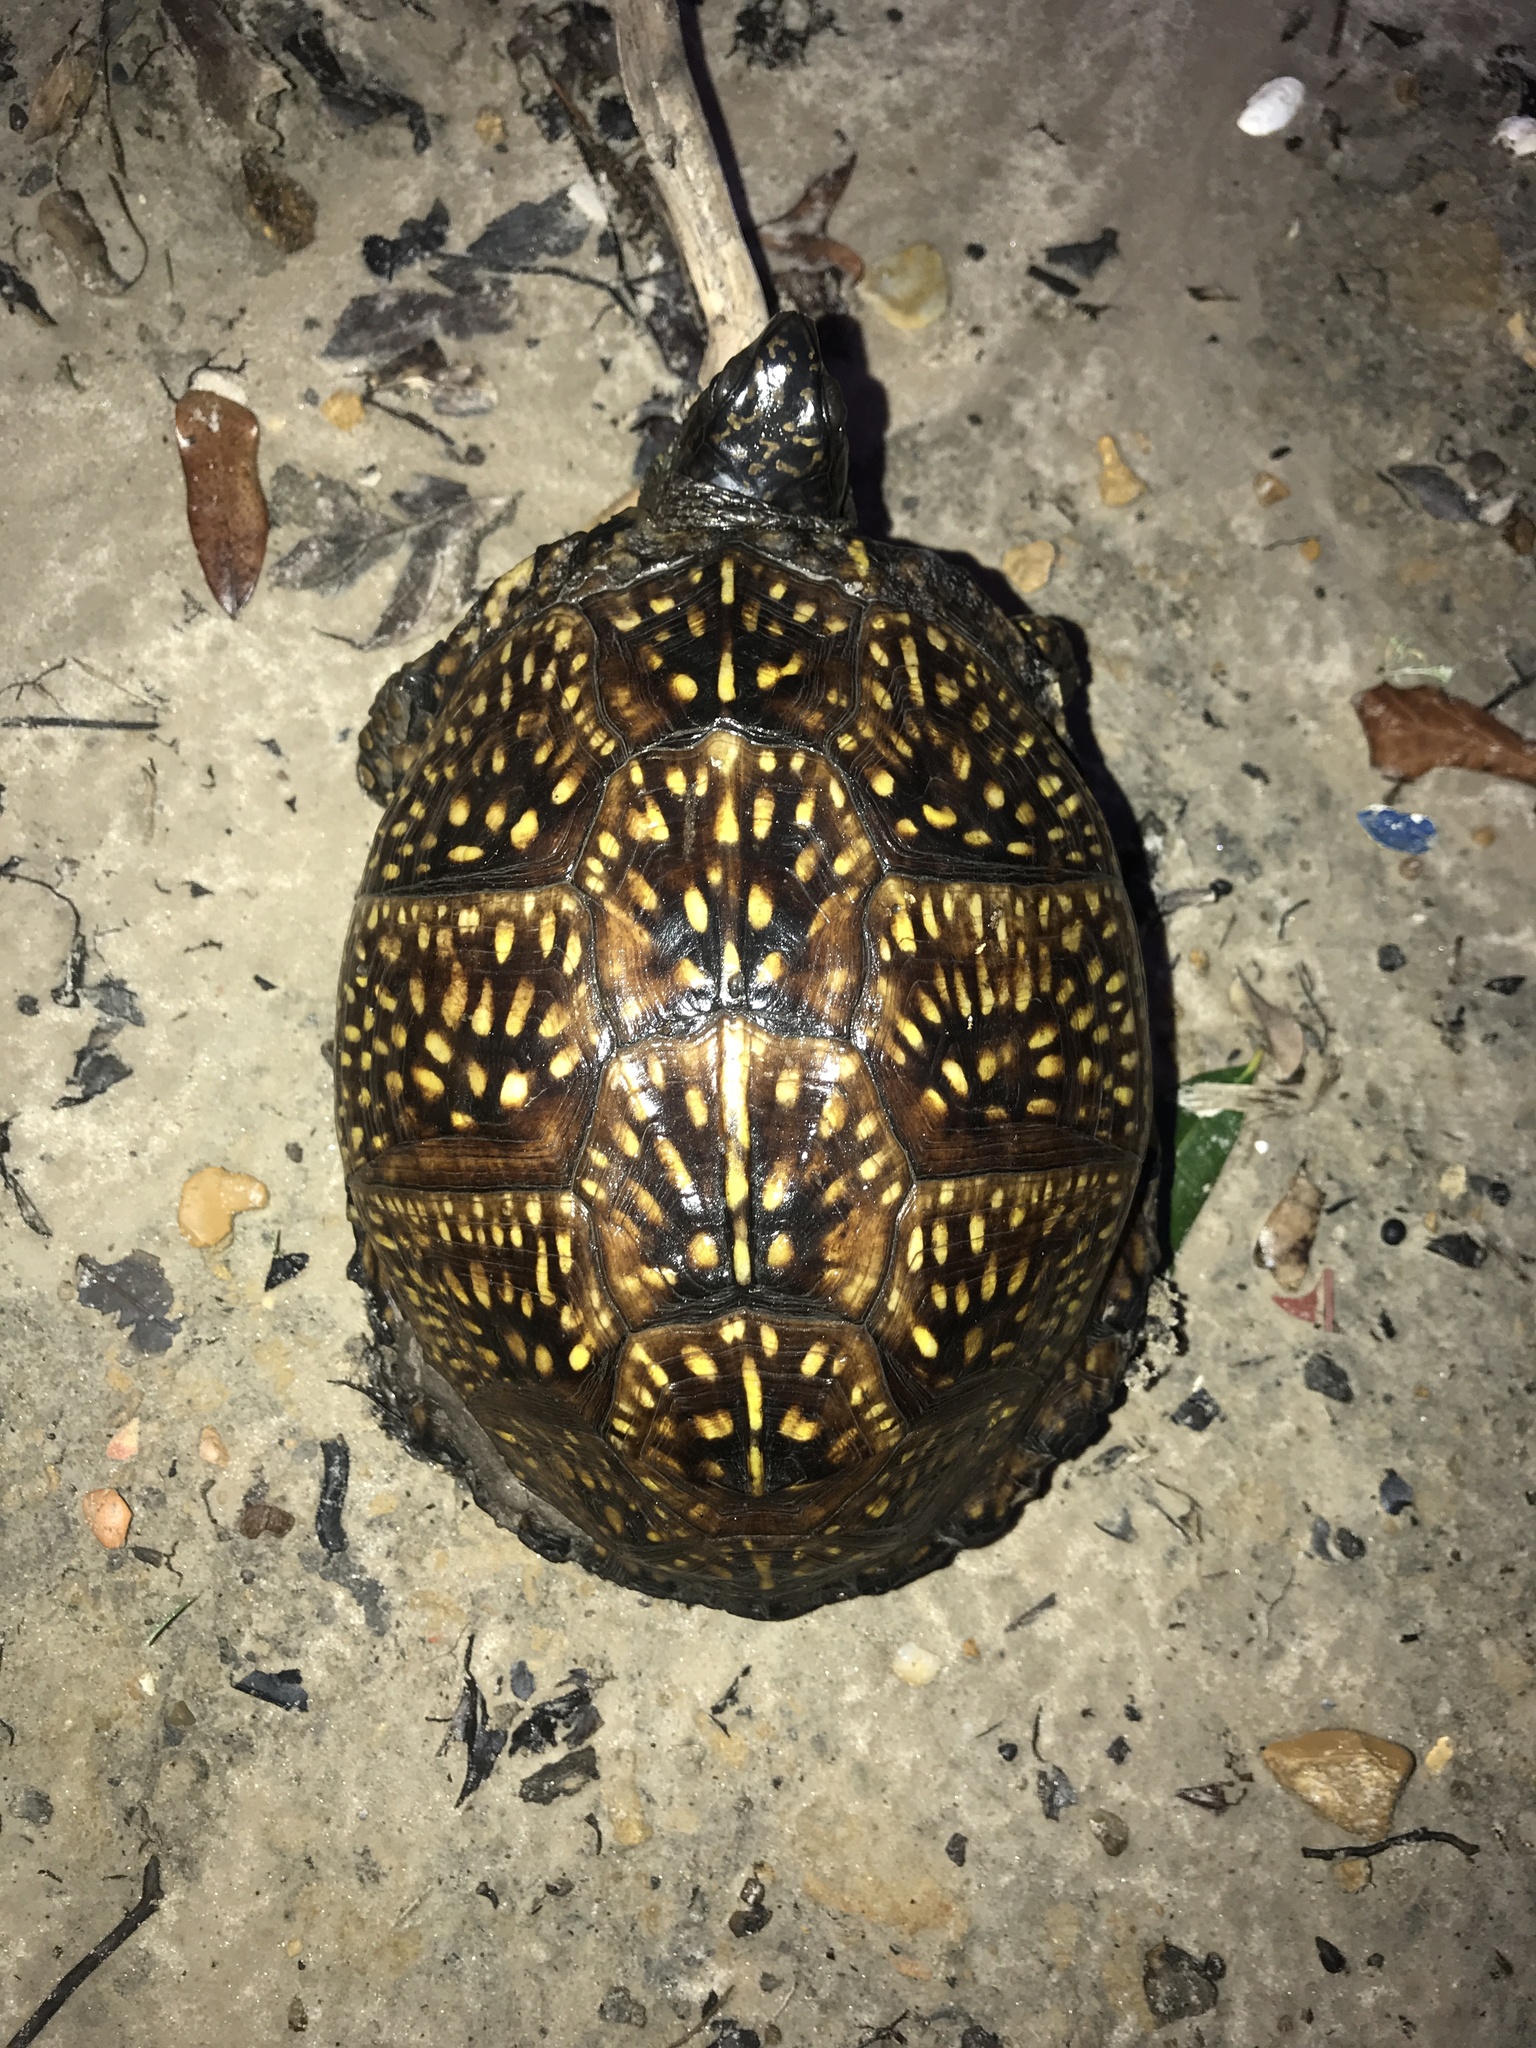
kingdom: Animalia
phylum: Chordata
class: Testudines
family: Emydidae
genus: Terrapene
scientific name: Terrapene carolina
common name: Common box turtle
